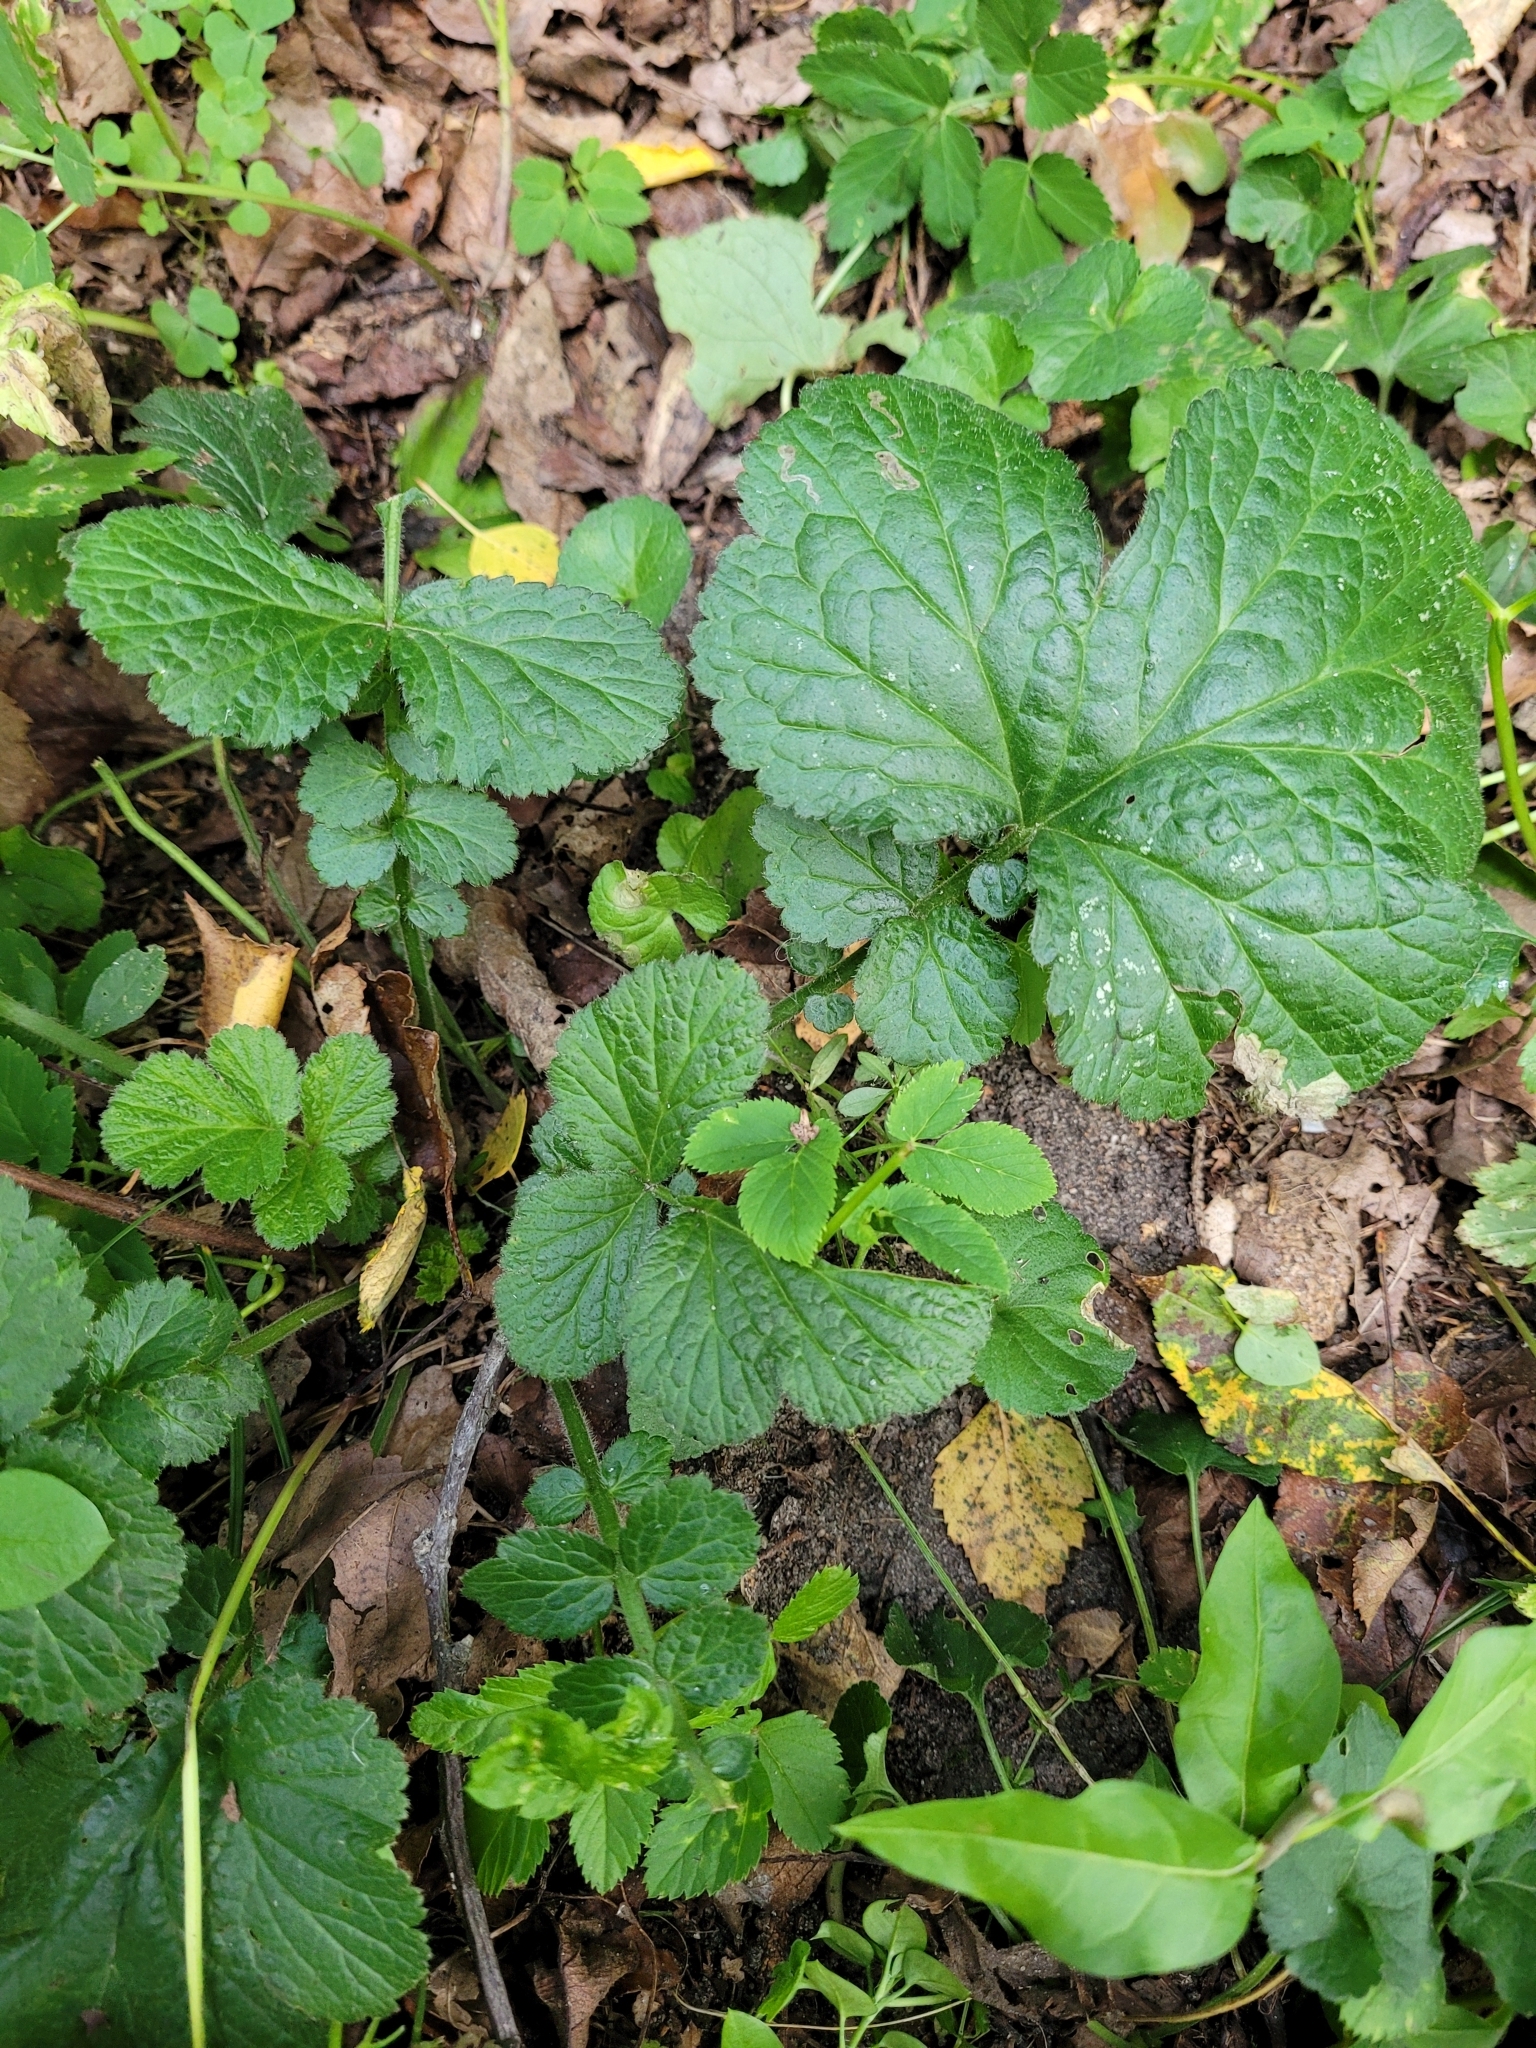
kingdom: Plantae
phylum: Tracheophyta
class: Magnoliopsida
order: Rosales
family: Rosaceae
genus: Geum
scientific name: Geum urbanum
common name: Wood avens
